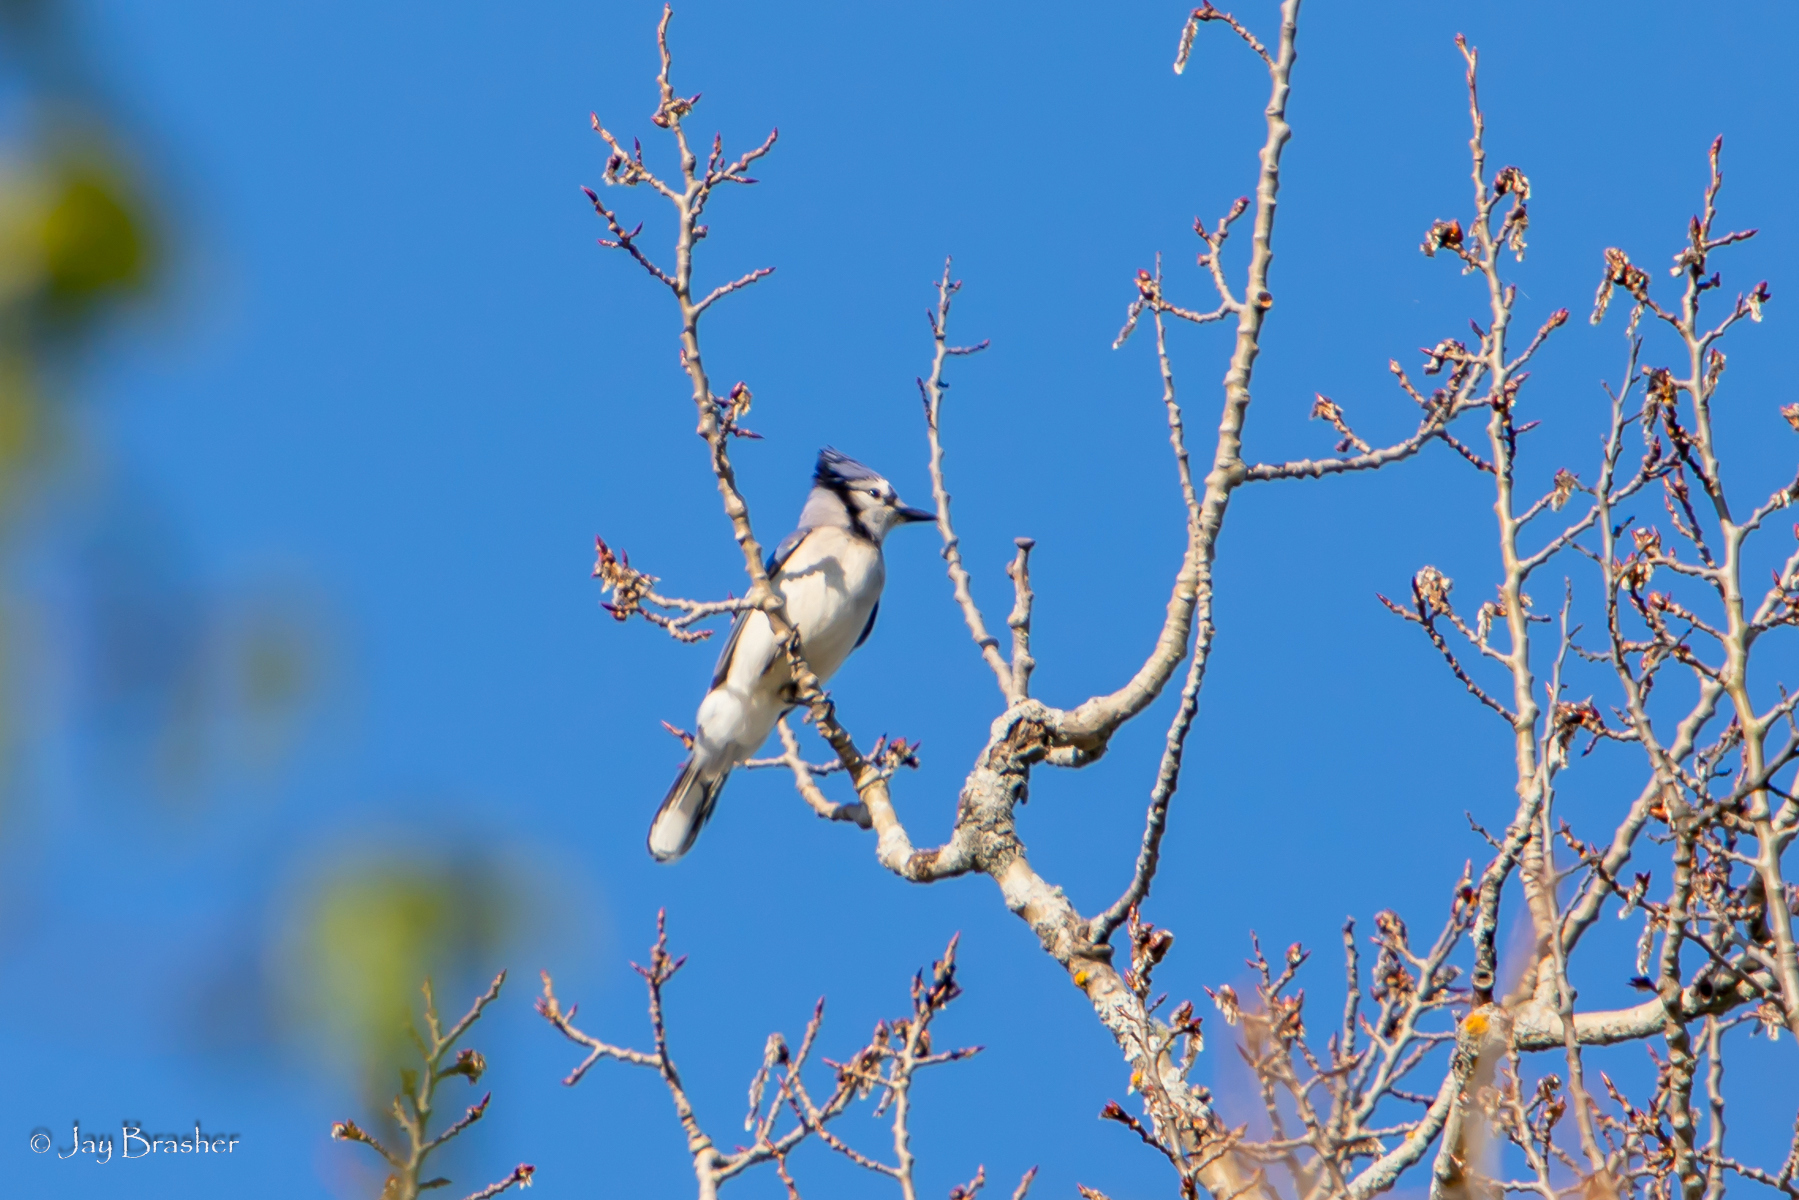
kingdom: Animalia
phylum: Chordata
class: Aves
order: Passeriformes
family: Corvidae
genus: Cyanocitta
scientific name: Cyanocitta cristata
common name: Blue jay
